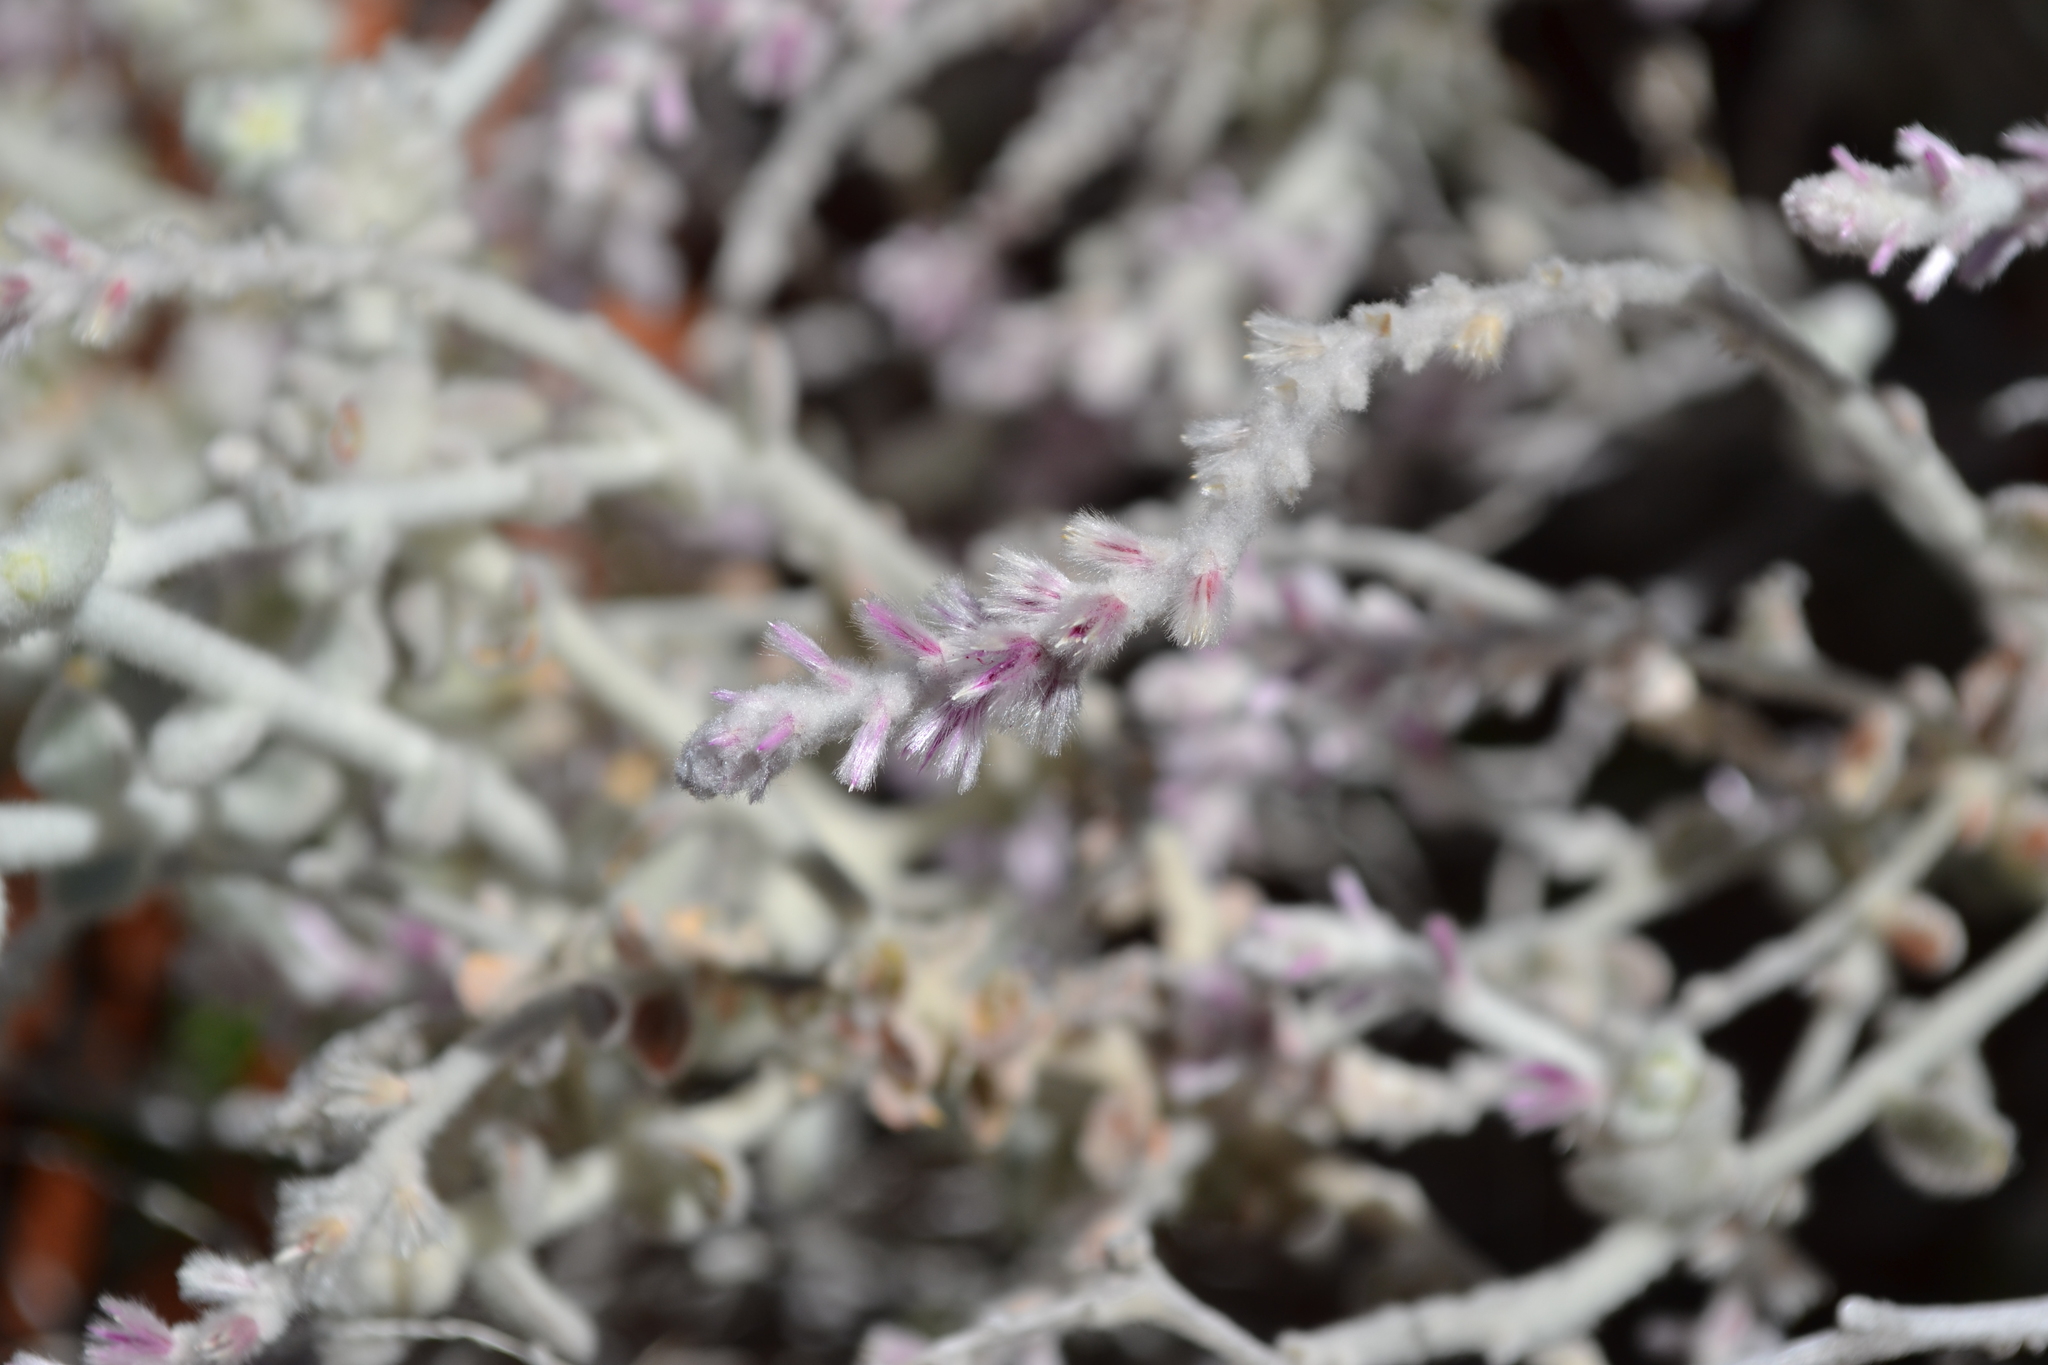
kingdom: Plantae
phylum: Tracheophyta
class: Magnoliopsida
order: Caryophyllales
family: Amaranthaceae
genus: Ptilotus
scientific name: Ptilotus royceanus
